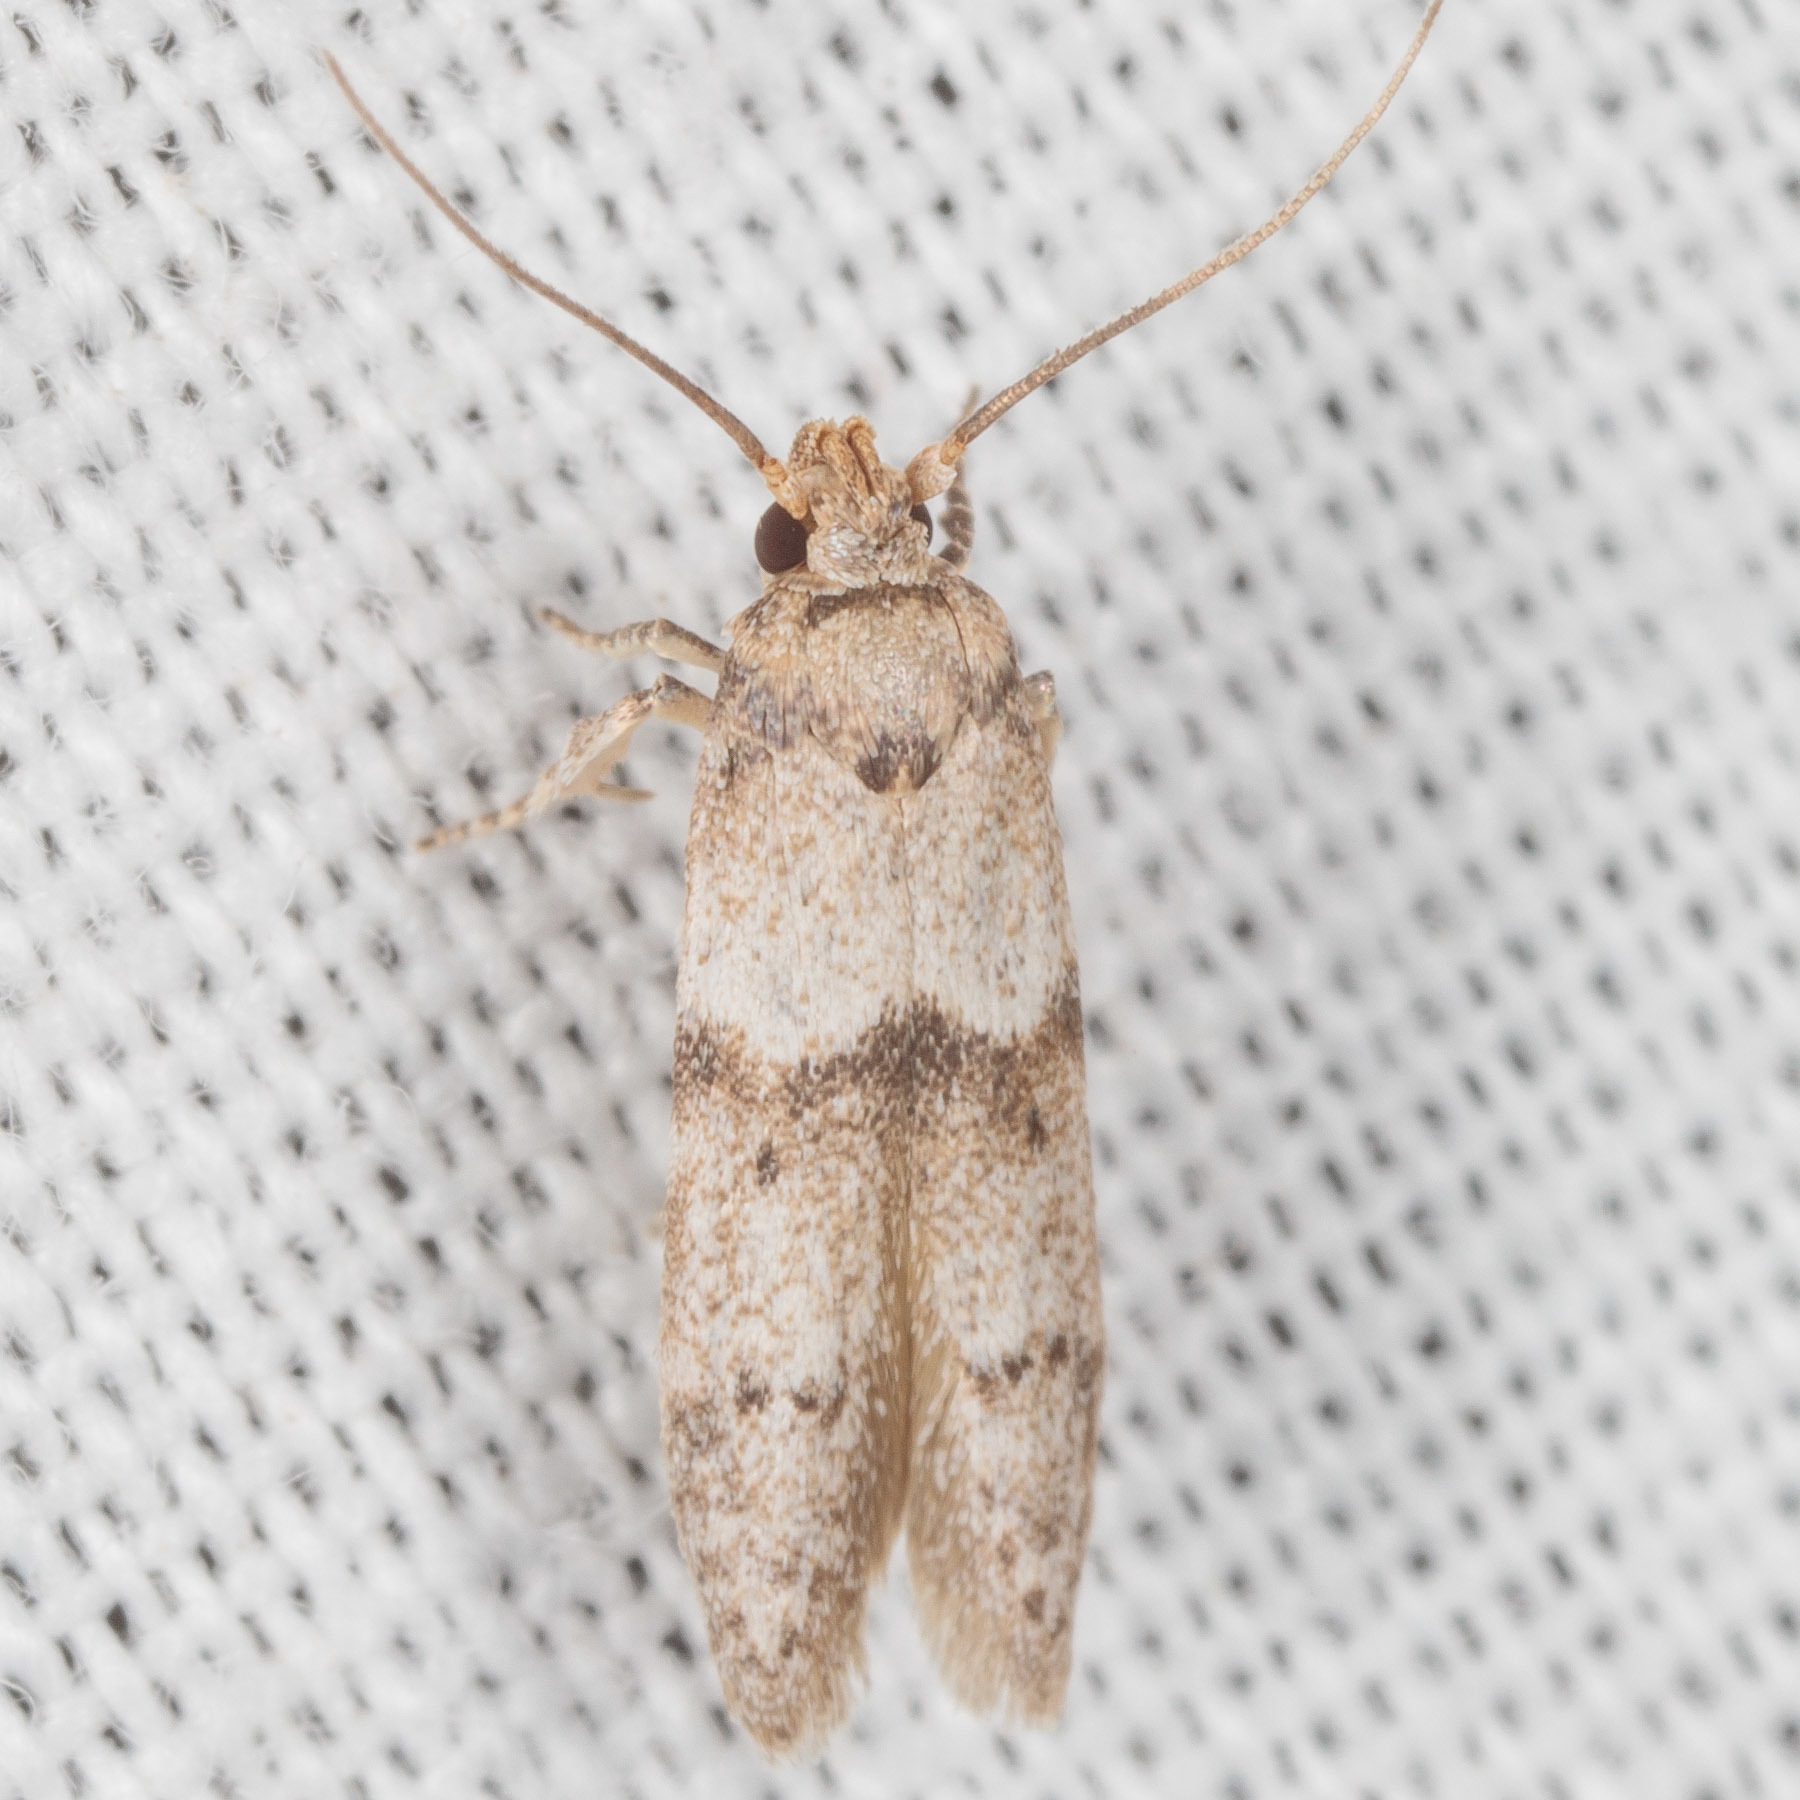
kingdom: Animalia
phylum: Arthropoda
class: Insecta
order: Lepidoptera
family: Blastobasidae
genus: Blastobasis
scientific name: Blastobasis glandulella
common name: Acorn moth
